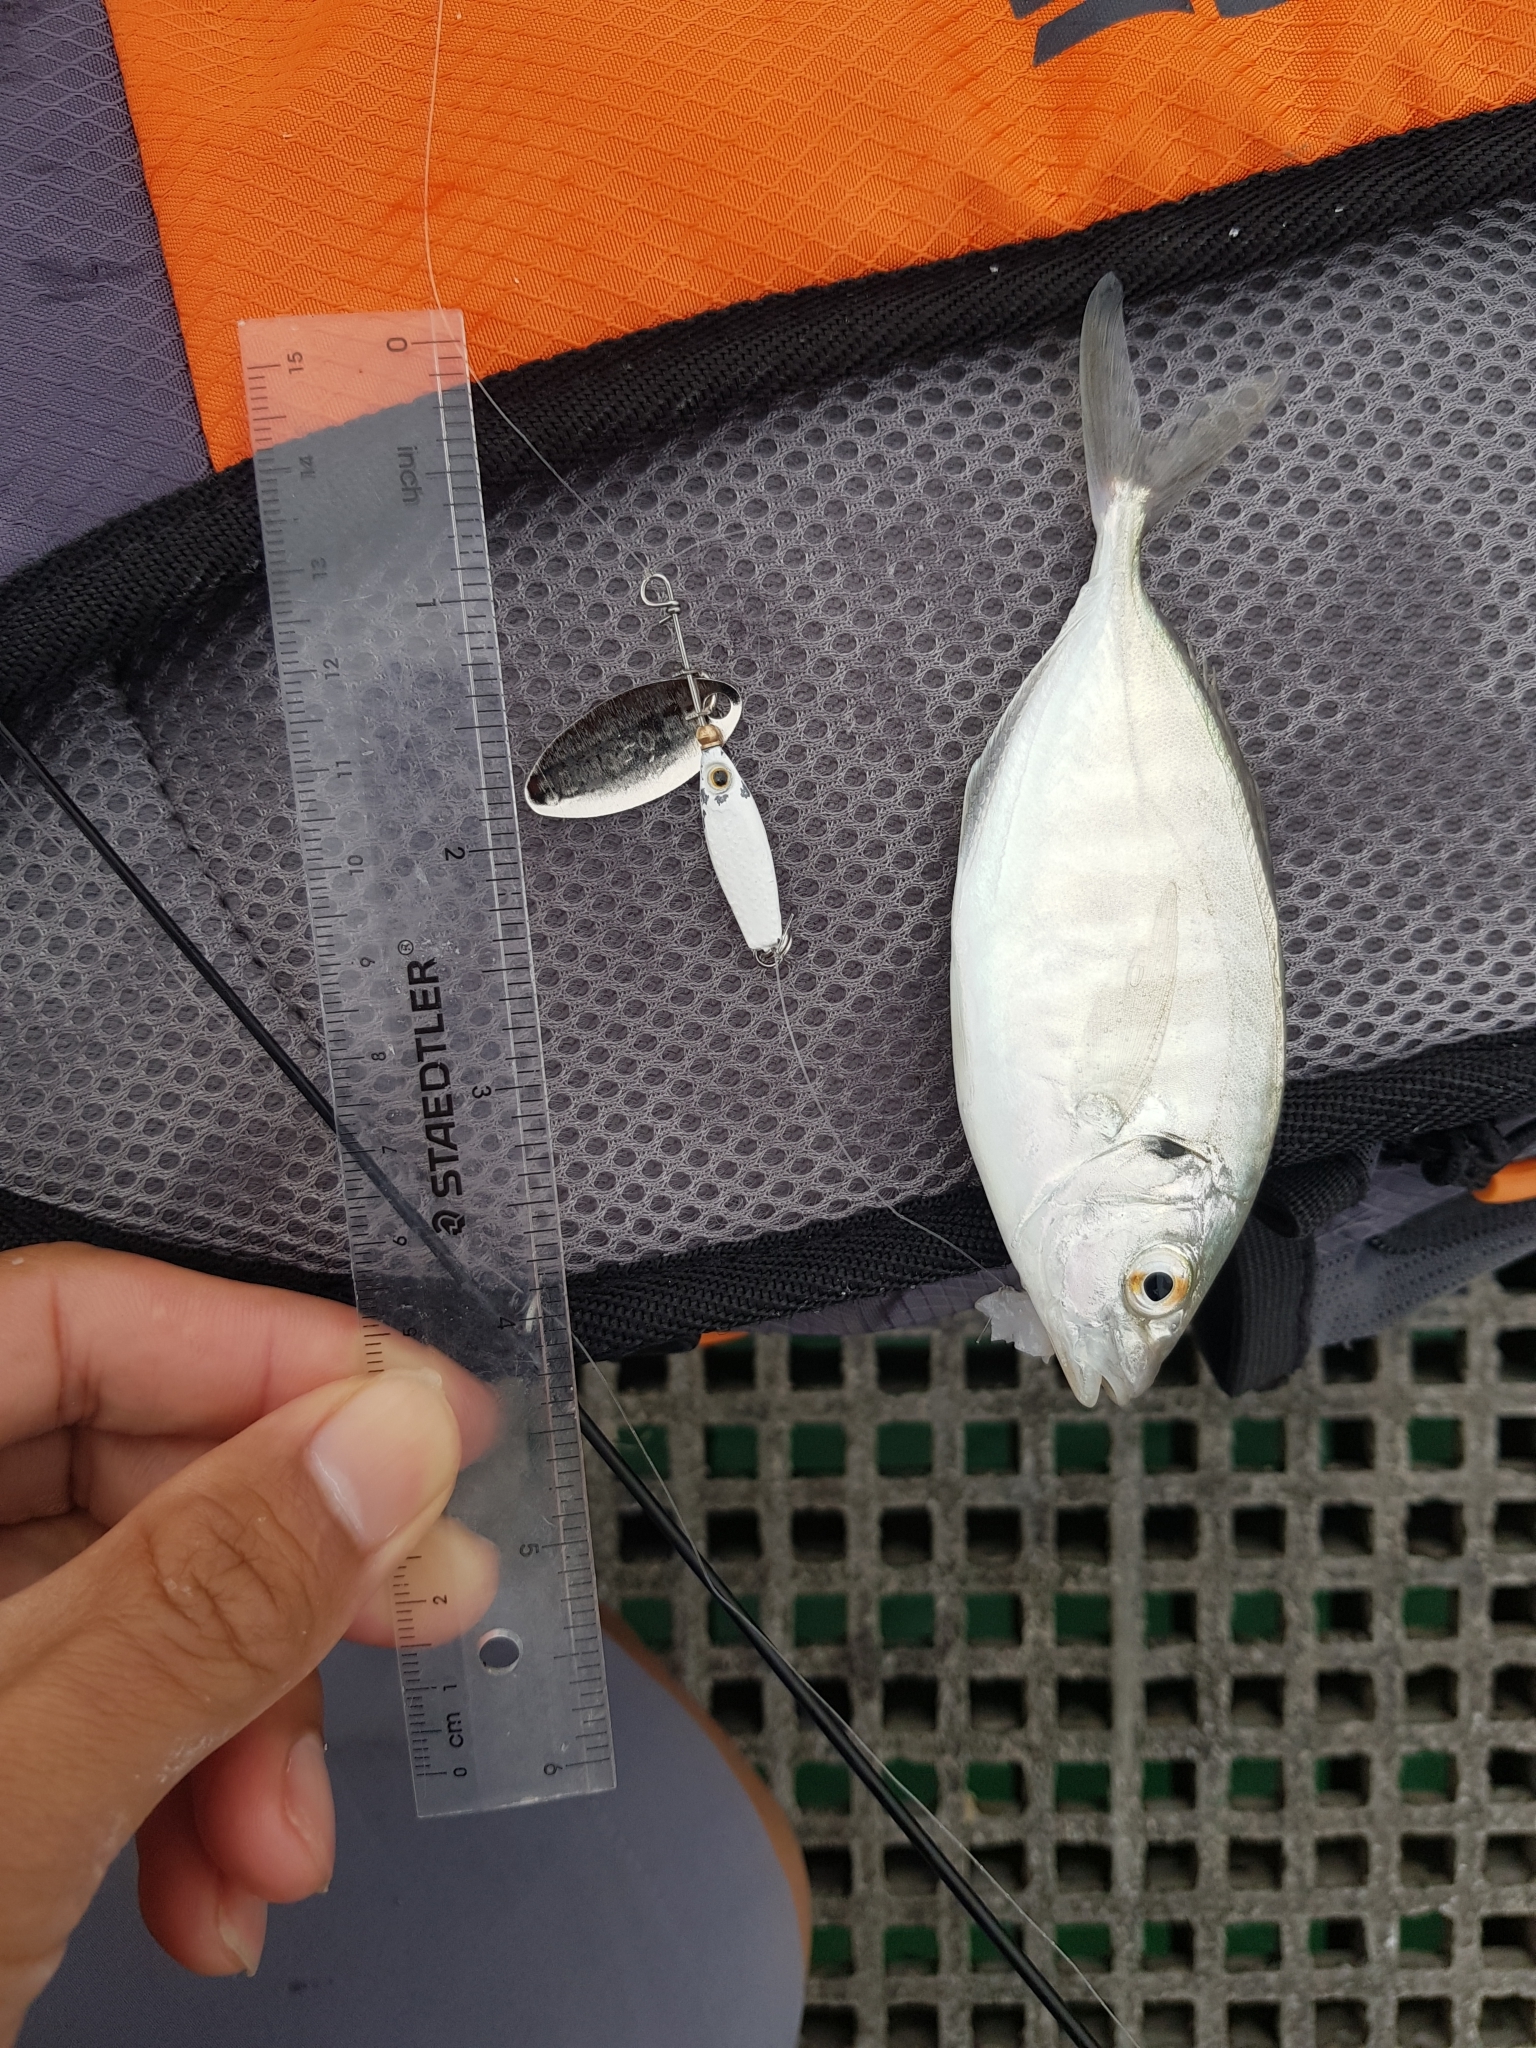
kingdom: Animalia
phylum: Chordata
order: Perciformes
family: Carangidae
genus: Pseudocaranx
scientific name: Pseudocaranx dentex
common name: White trevally
